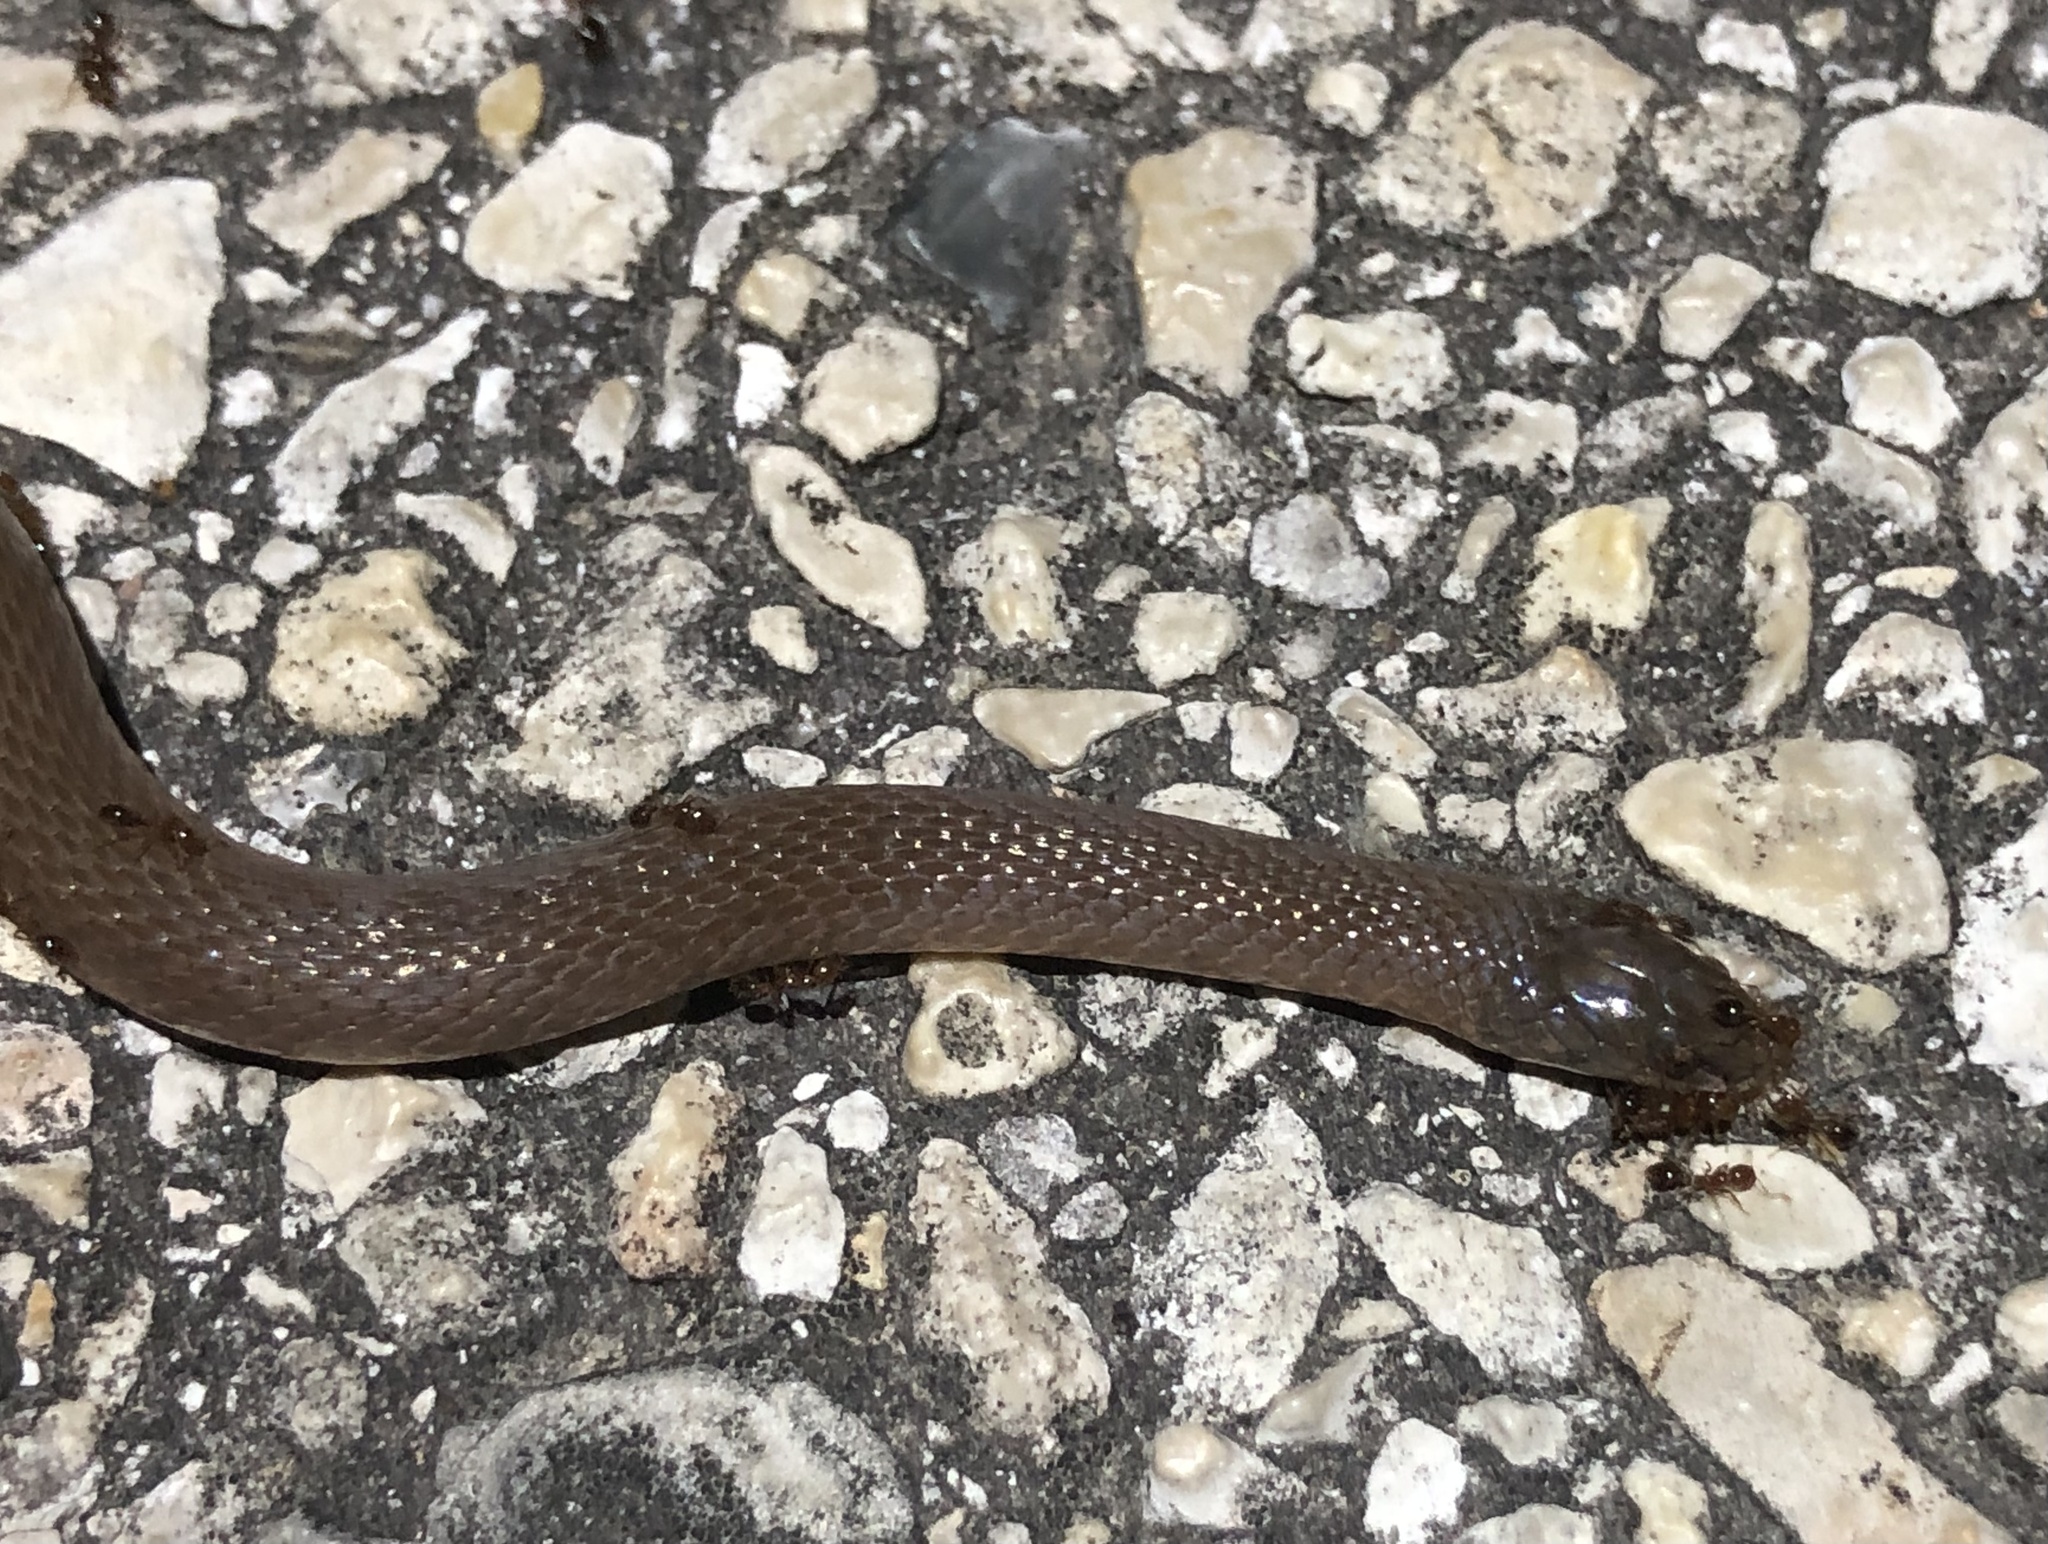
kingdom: Animalia
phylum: Chordata
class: Squamata
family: Colubridae
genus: Haldea
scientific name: Haldea striatula
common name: Rough earth snake
